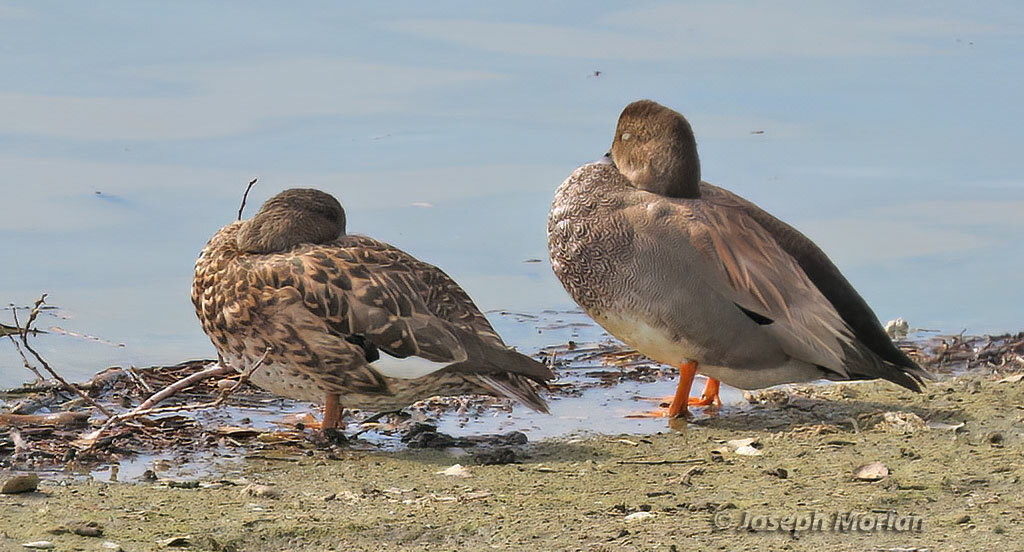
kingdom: Animalia
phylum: Chordata
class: Aves
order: Anseriformes
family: Anatidae
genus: Mareca
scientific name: Mareca strepera
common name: Gadwall
